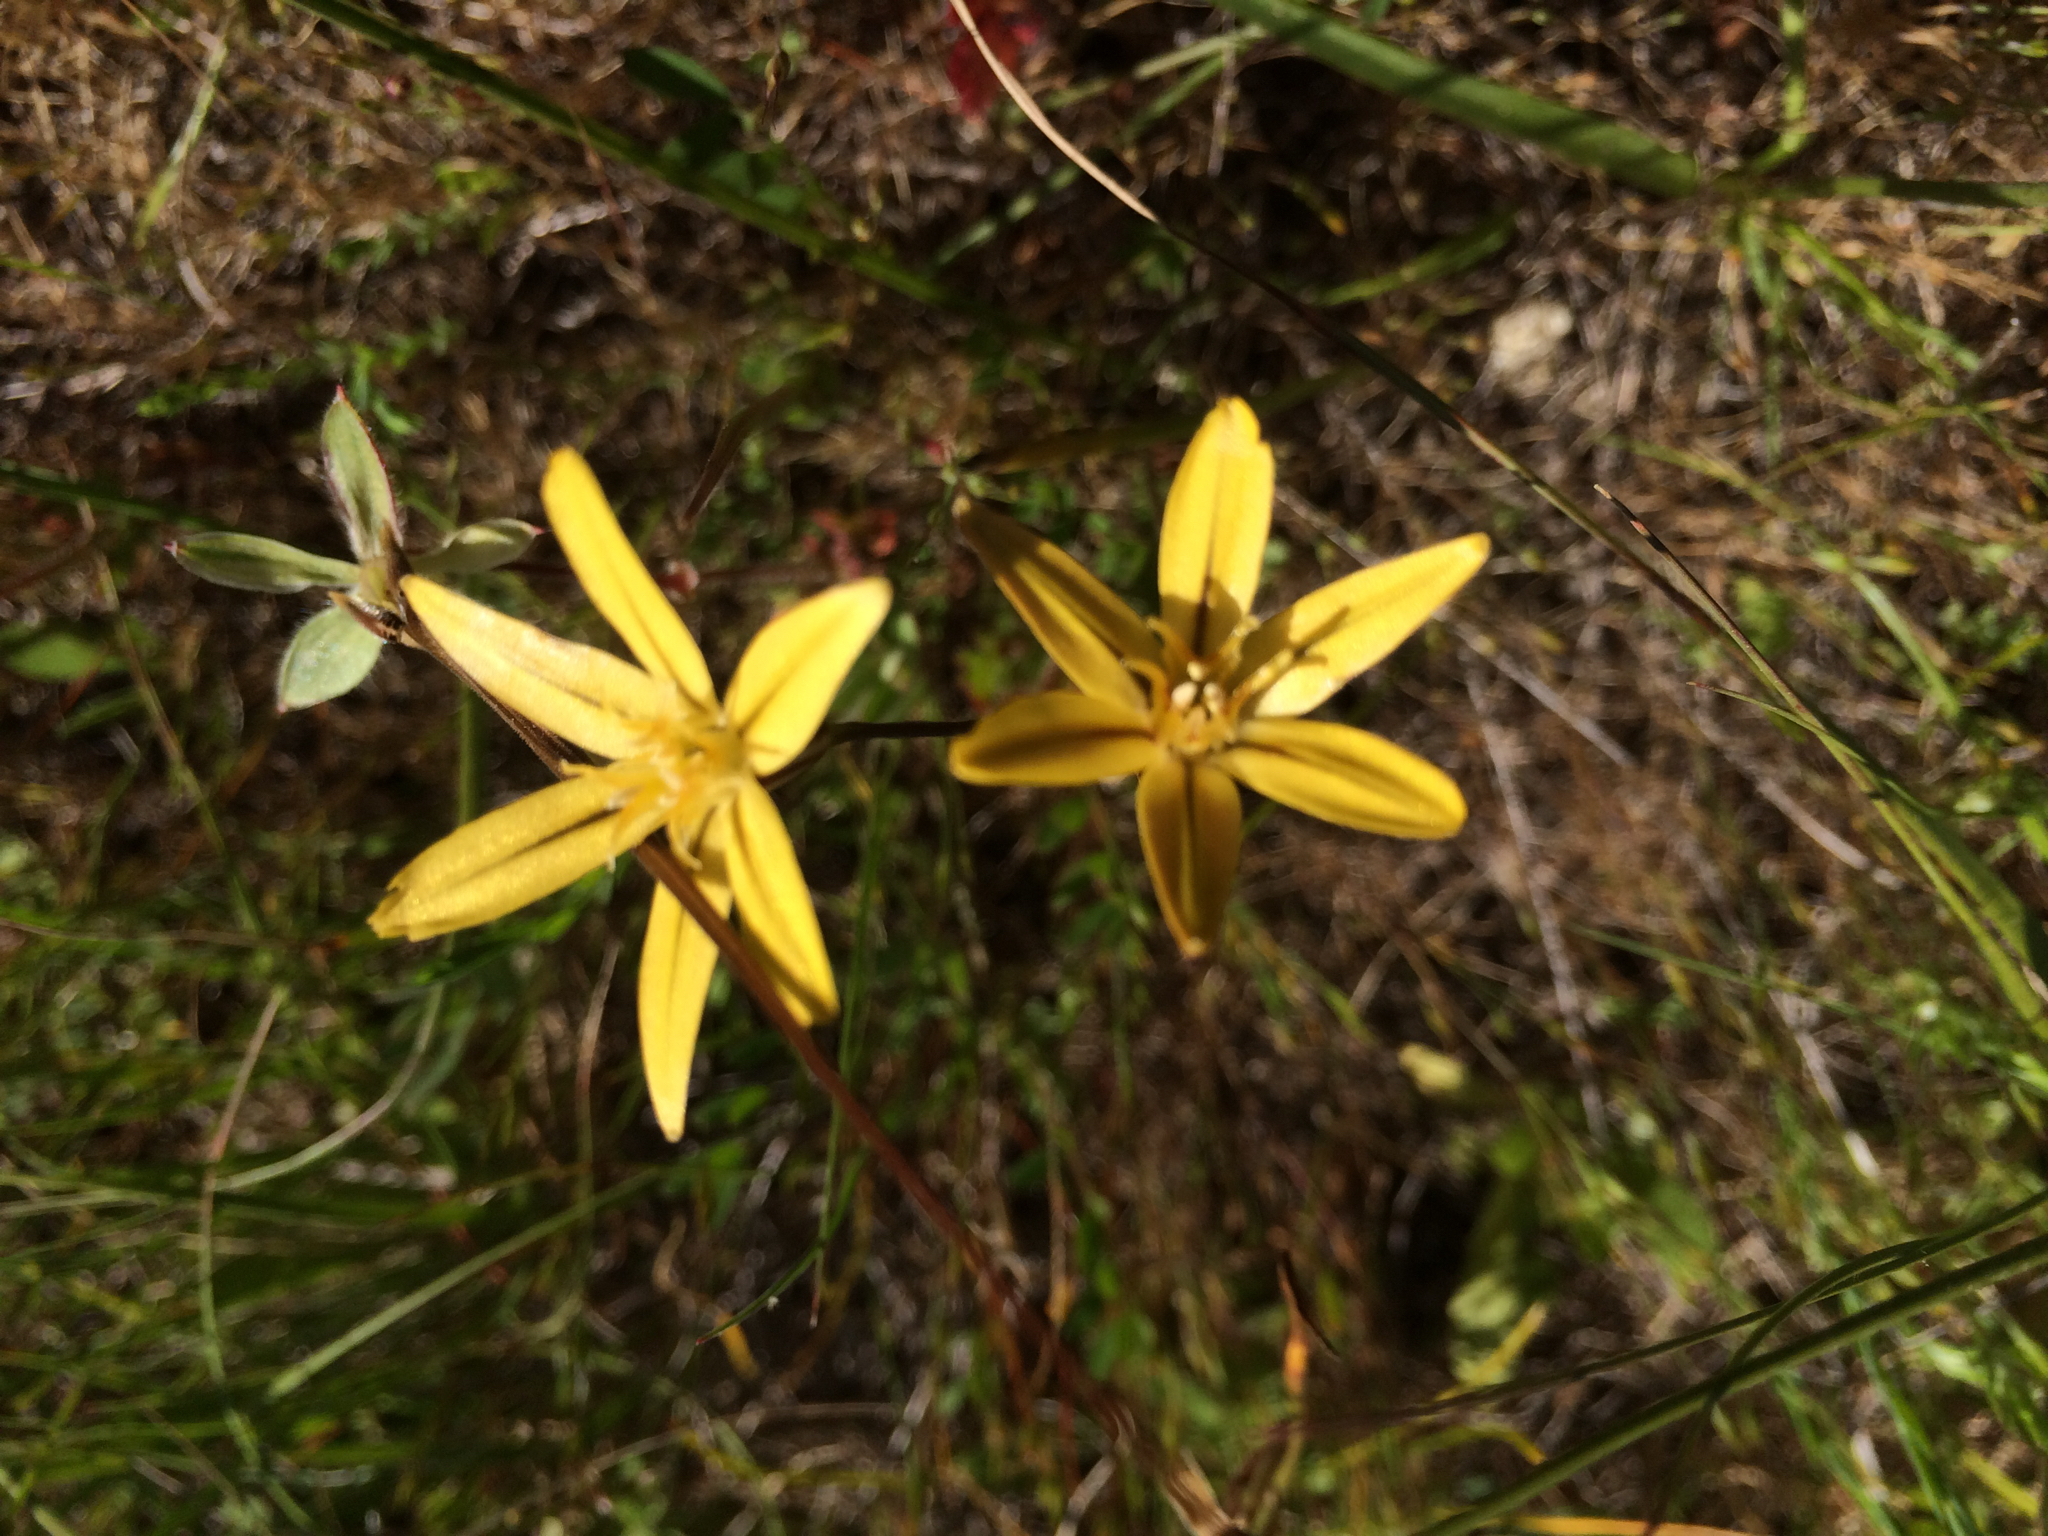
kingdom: Plantae
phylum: Tracheophyta
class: Liliopsida
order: Asparagales
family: Asparagaceae
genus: Triteleia
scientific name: Triteleia ixioides
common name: Yellow-brodiaea
